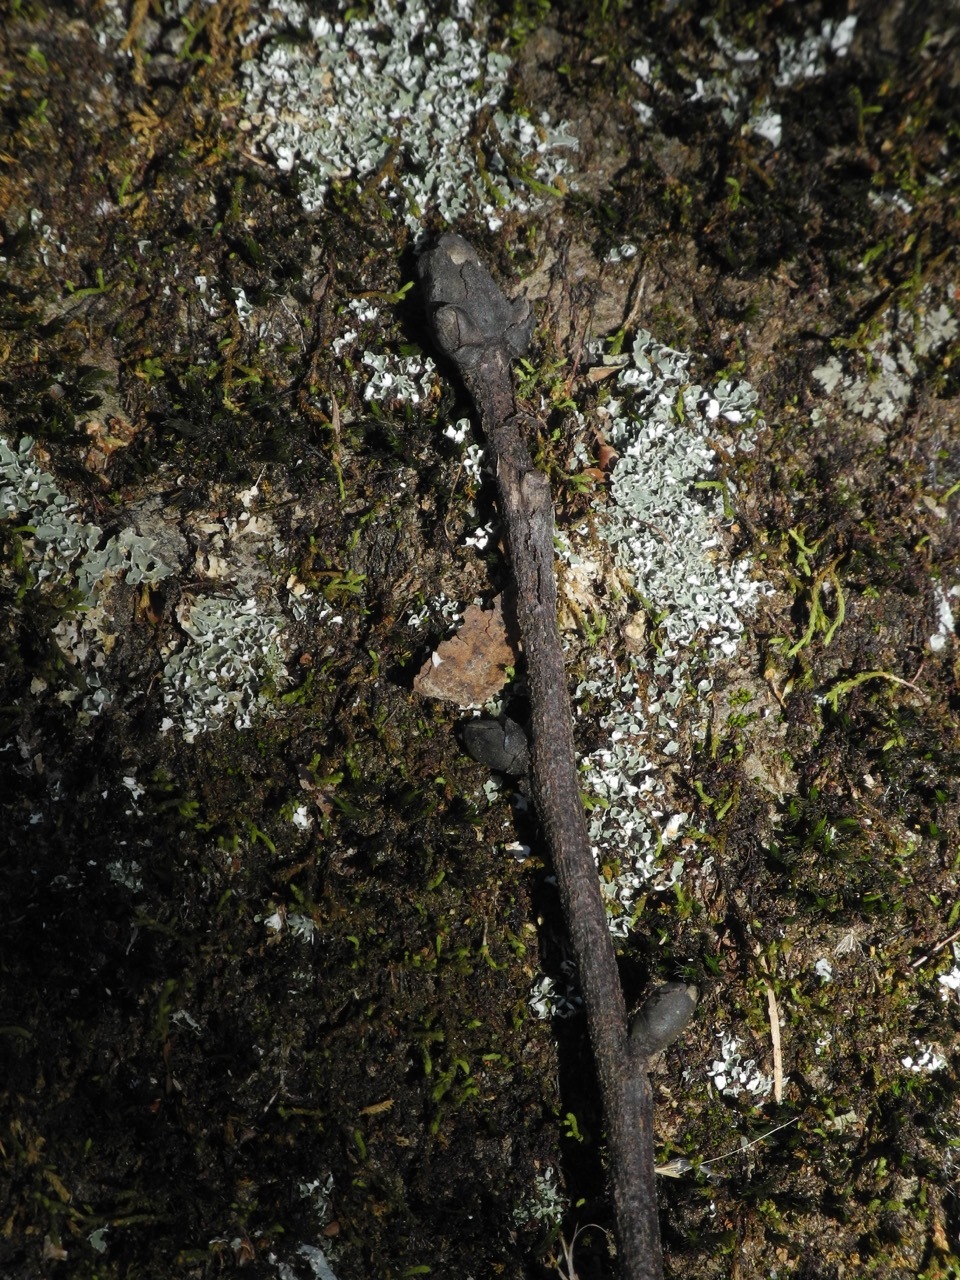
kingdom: Plantae
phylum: Tracheophyta
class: Magnoliopsida
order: Fagales
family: Juglandaceae
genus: Carya
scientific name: Carya ovata
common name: Shagbark hickory
